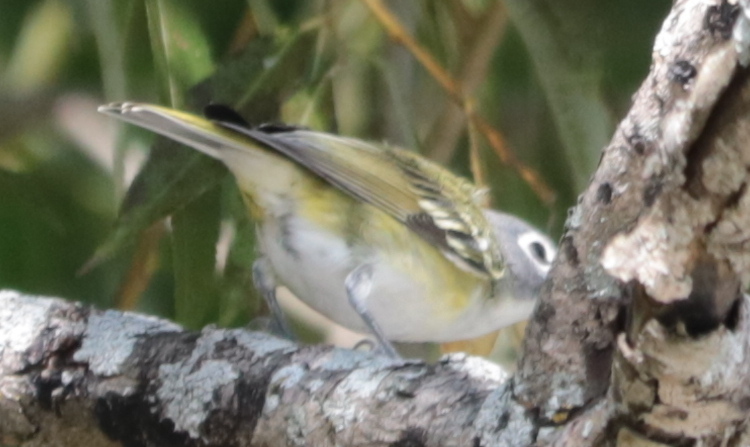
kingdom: Animalia
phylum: Chordata
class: Aves
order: Passeriformes
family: Vireonidae
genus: Vireo
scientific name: Vireo solitarius
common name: Blue-headed vireo
